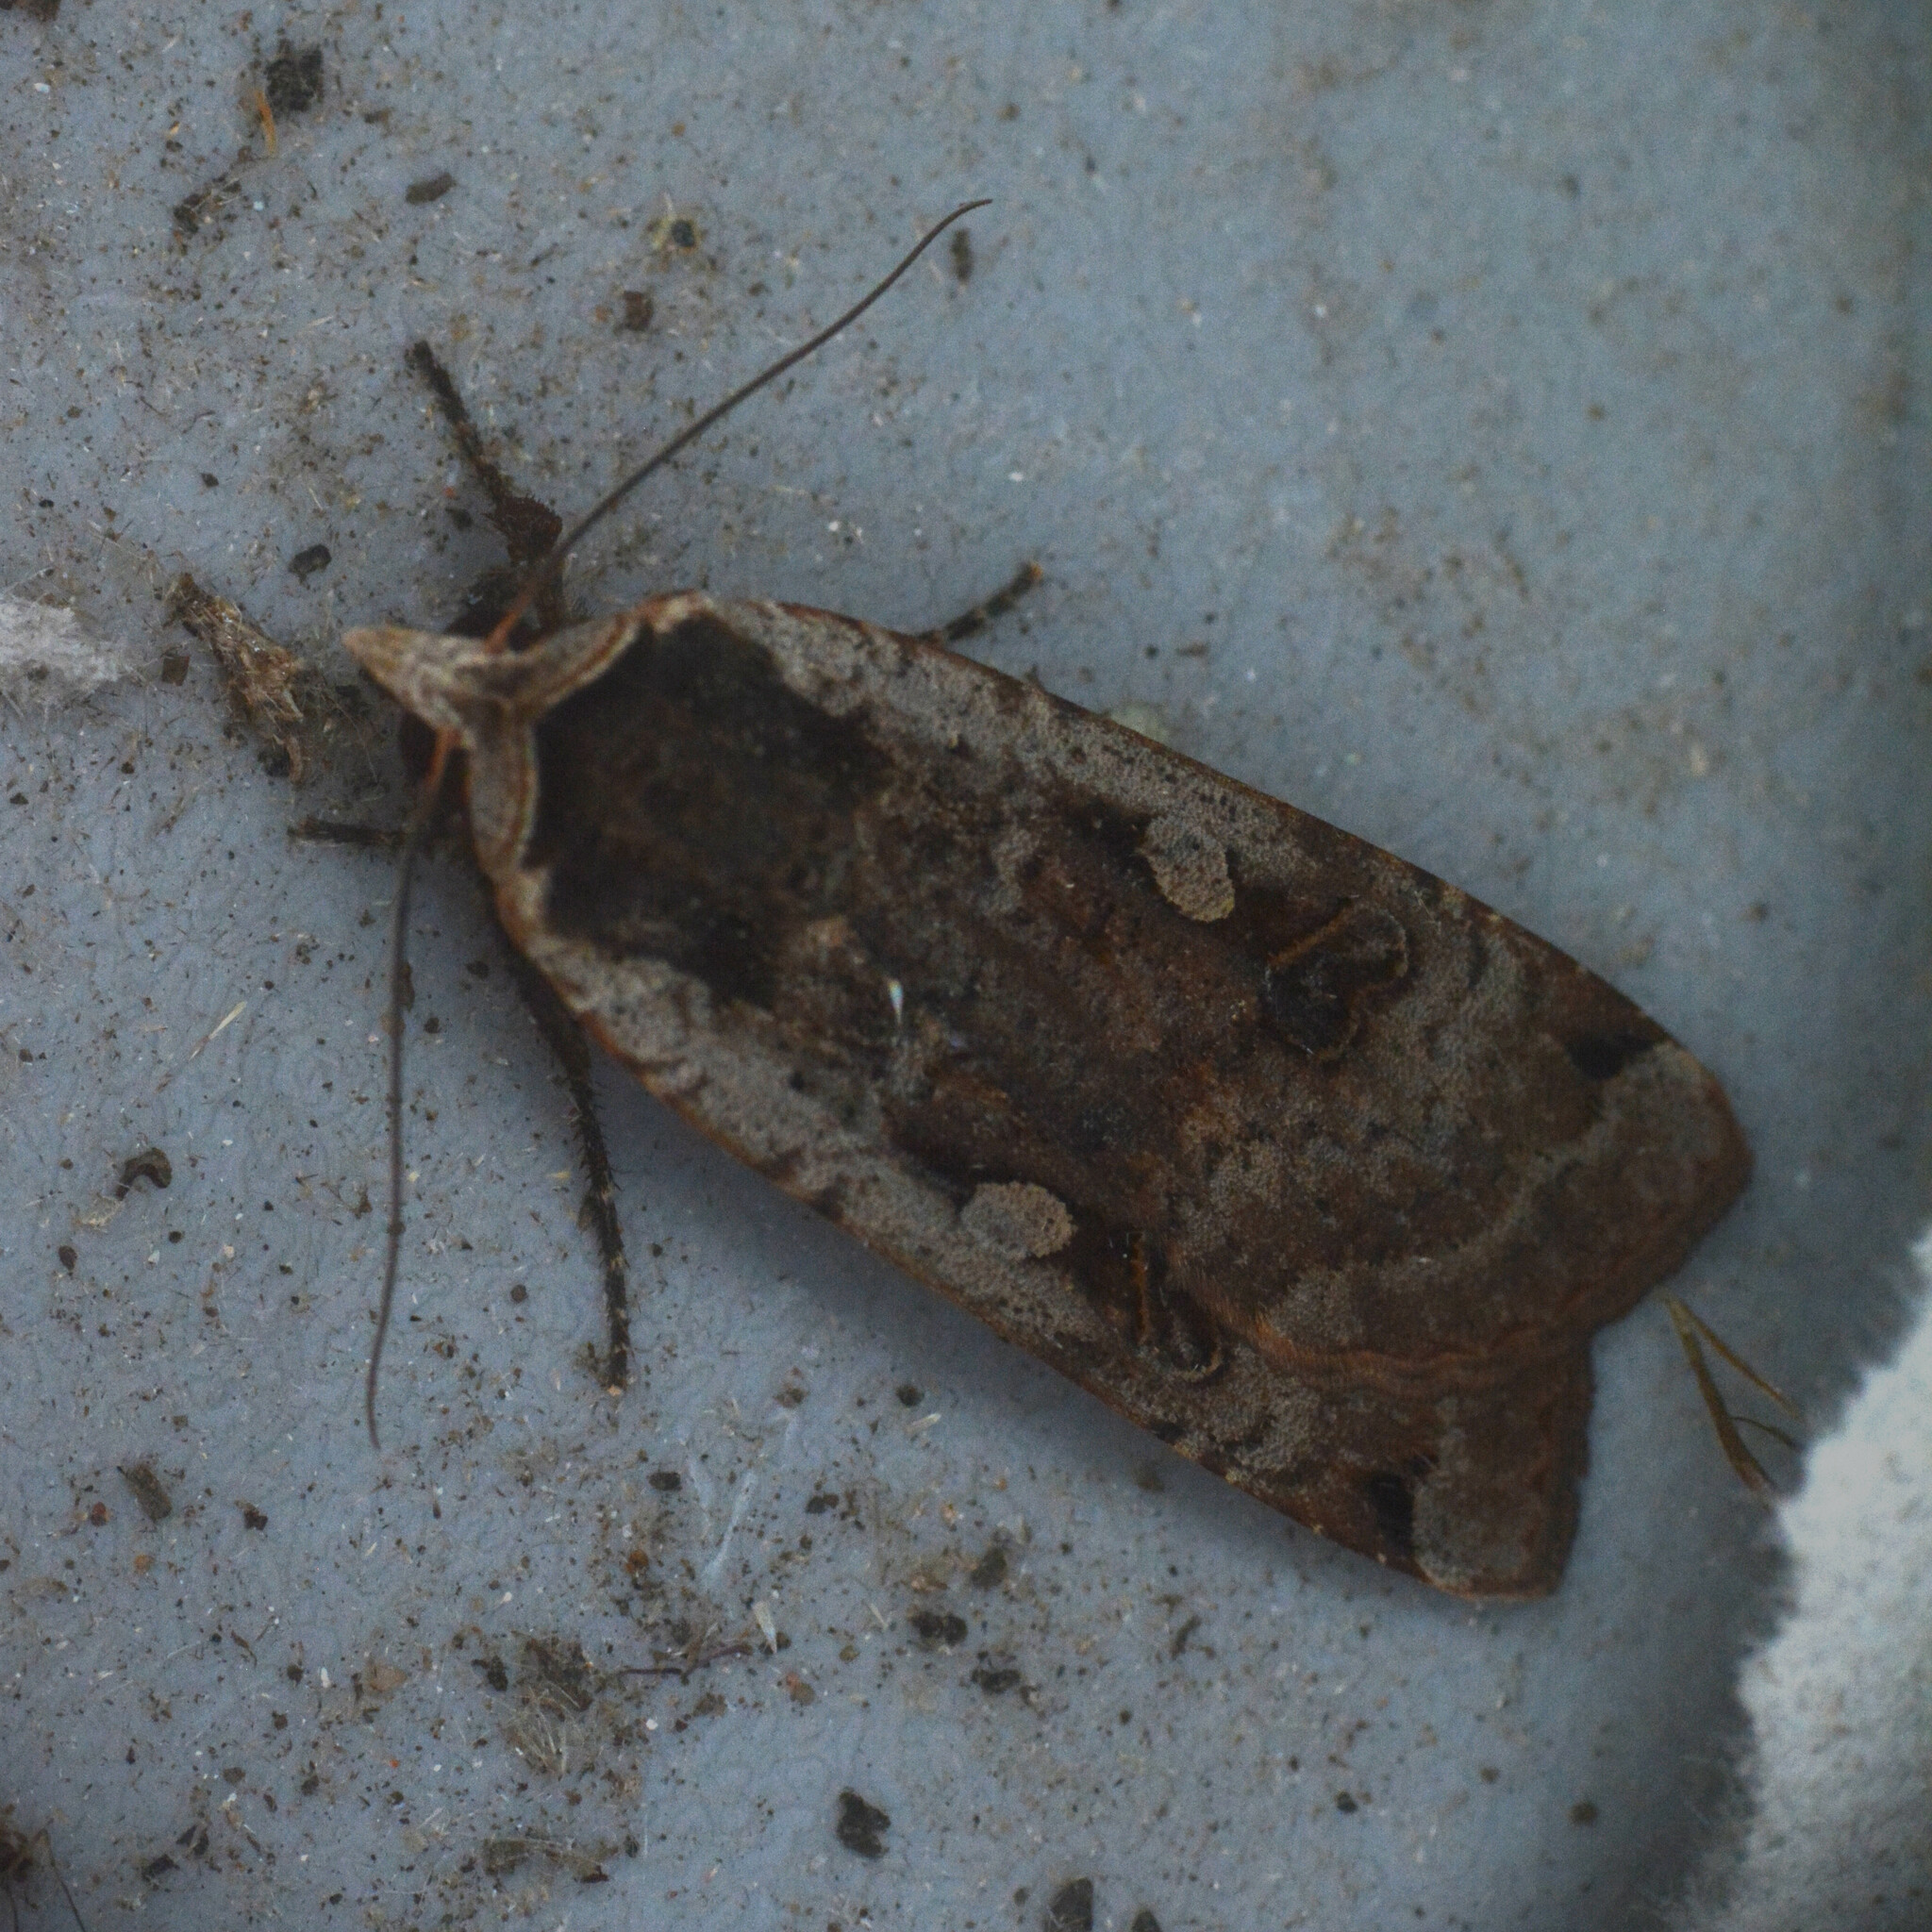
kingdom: Animalia
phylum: Arthropoda
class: Insecta
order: Lepidoptera
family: Noctuidae
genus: Noctua
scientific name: Noctua pronuba
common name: Large yellow underwing
